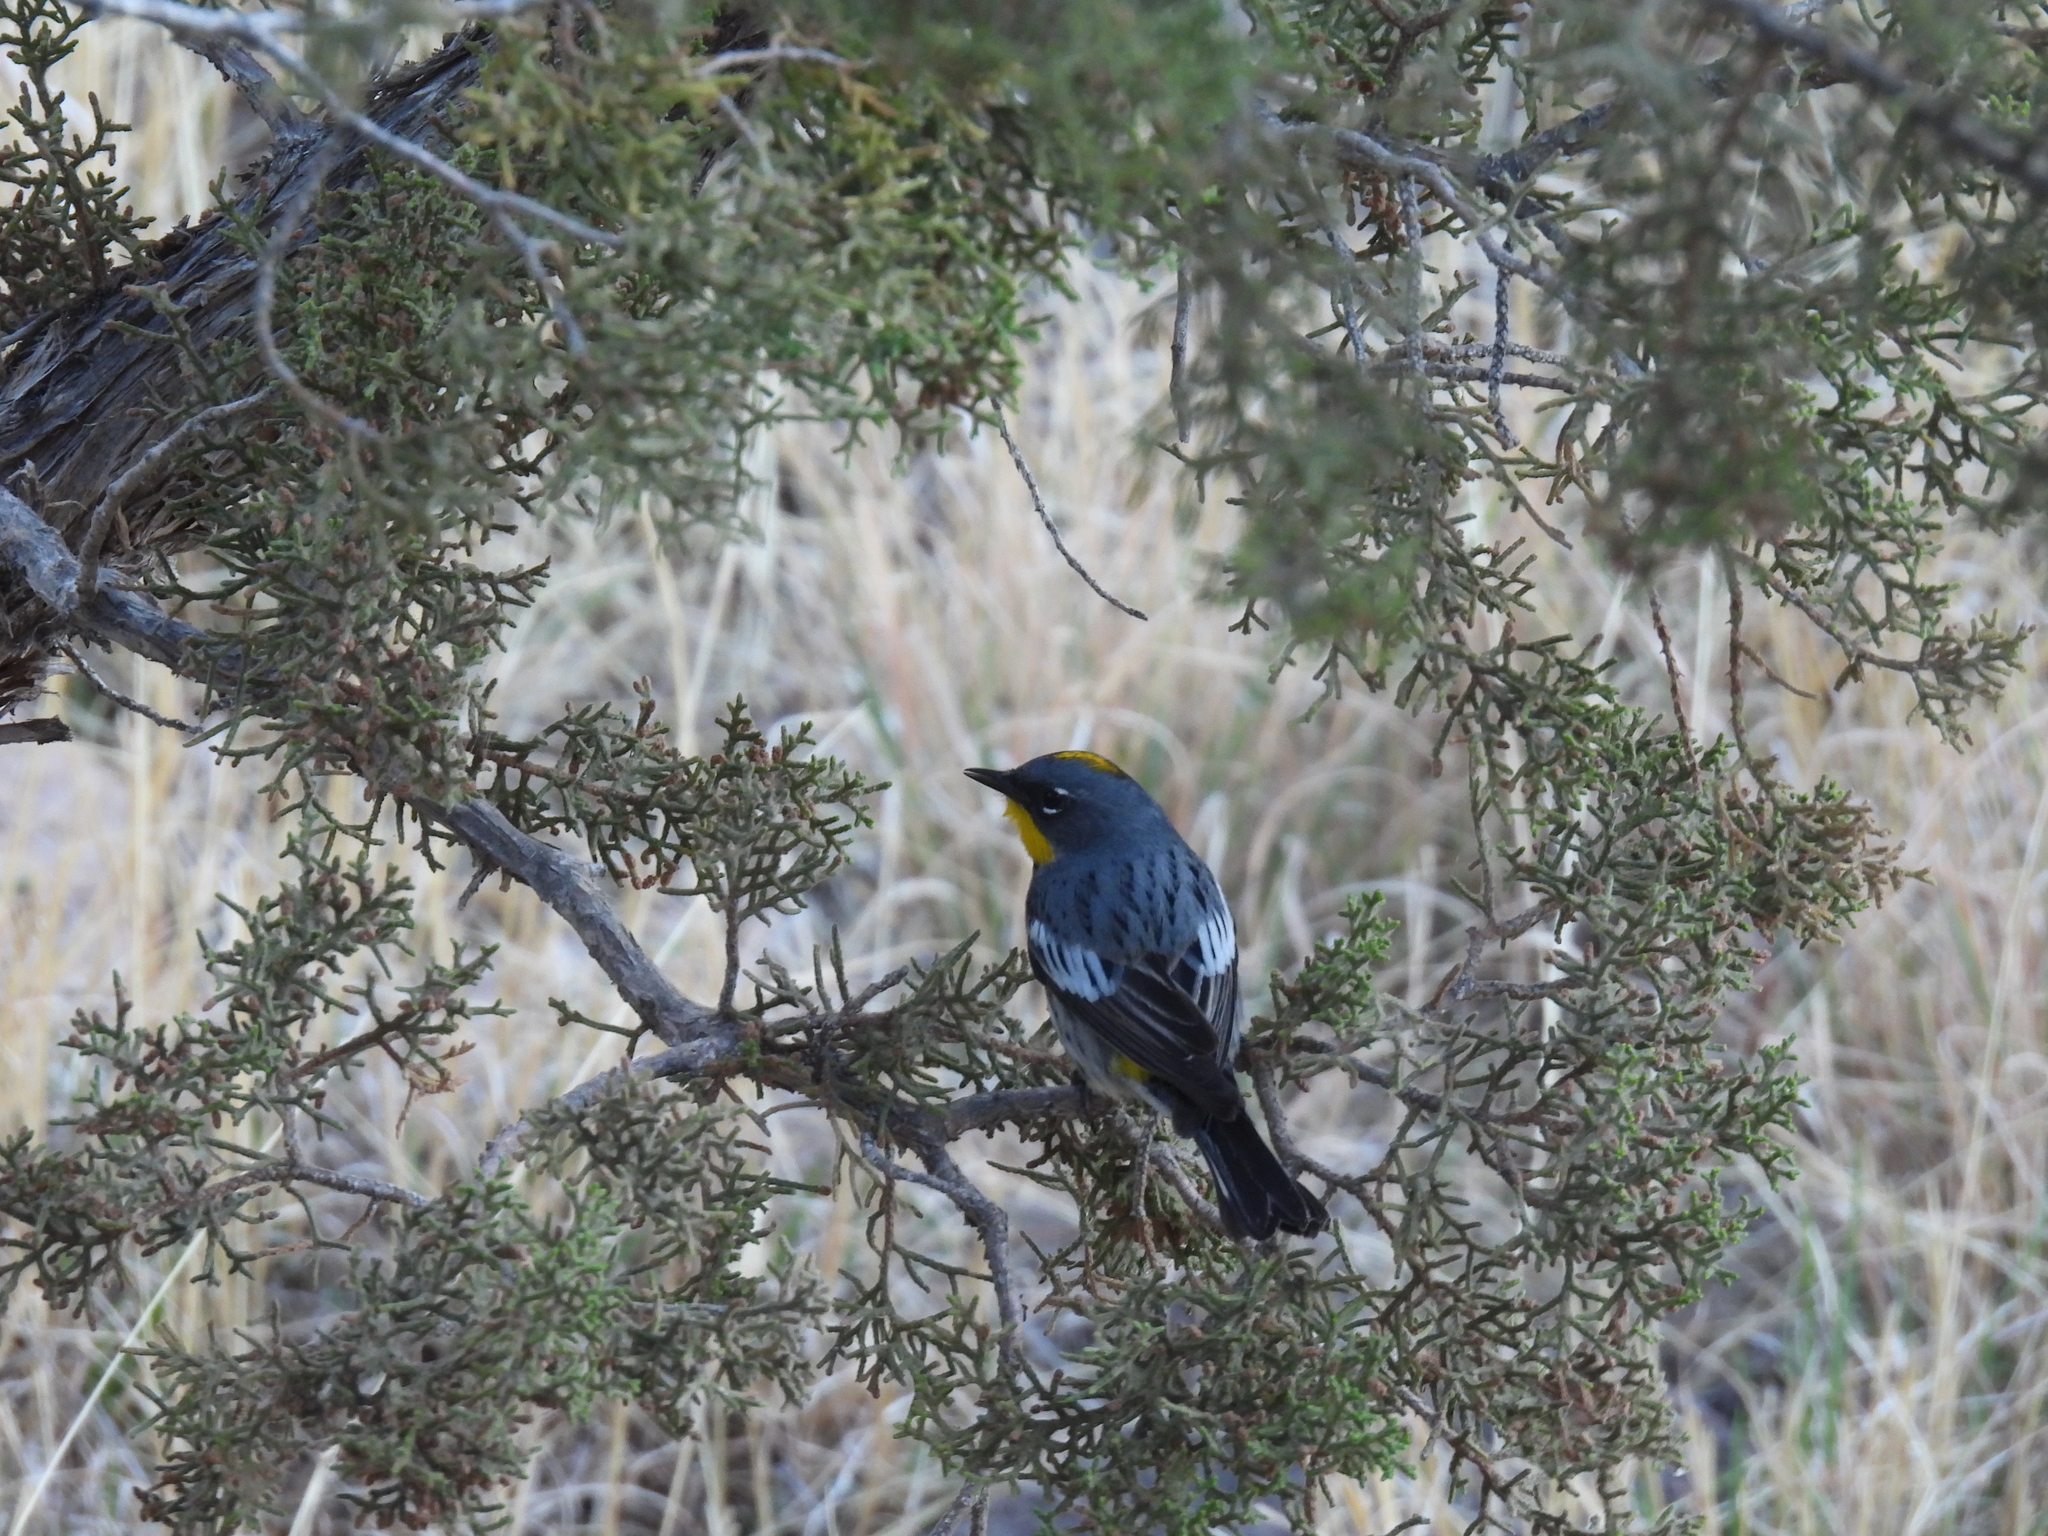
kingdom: Animalia
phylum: Chordata
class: Aves
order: Passeriformes
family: Parulidae
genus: Setophaga
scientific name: Setophaga coronata
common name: Myrtle warbler
